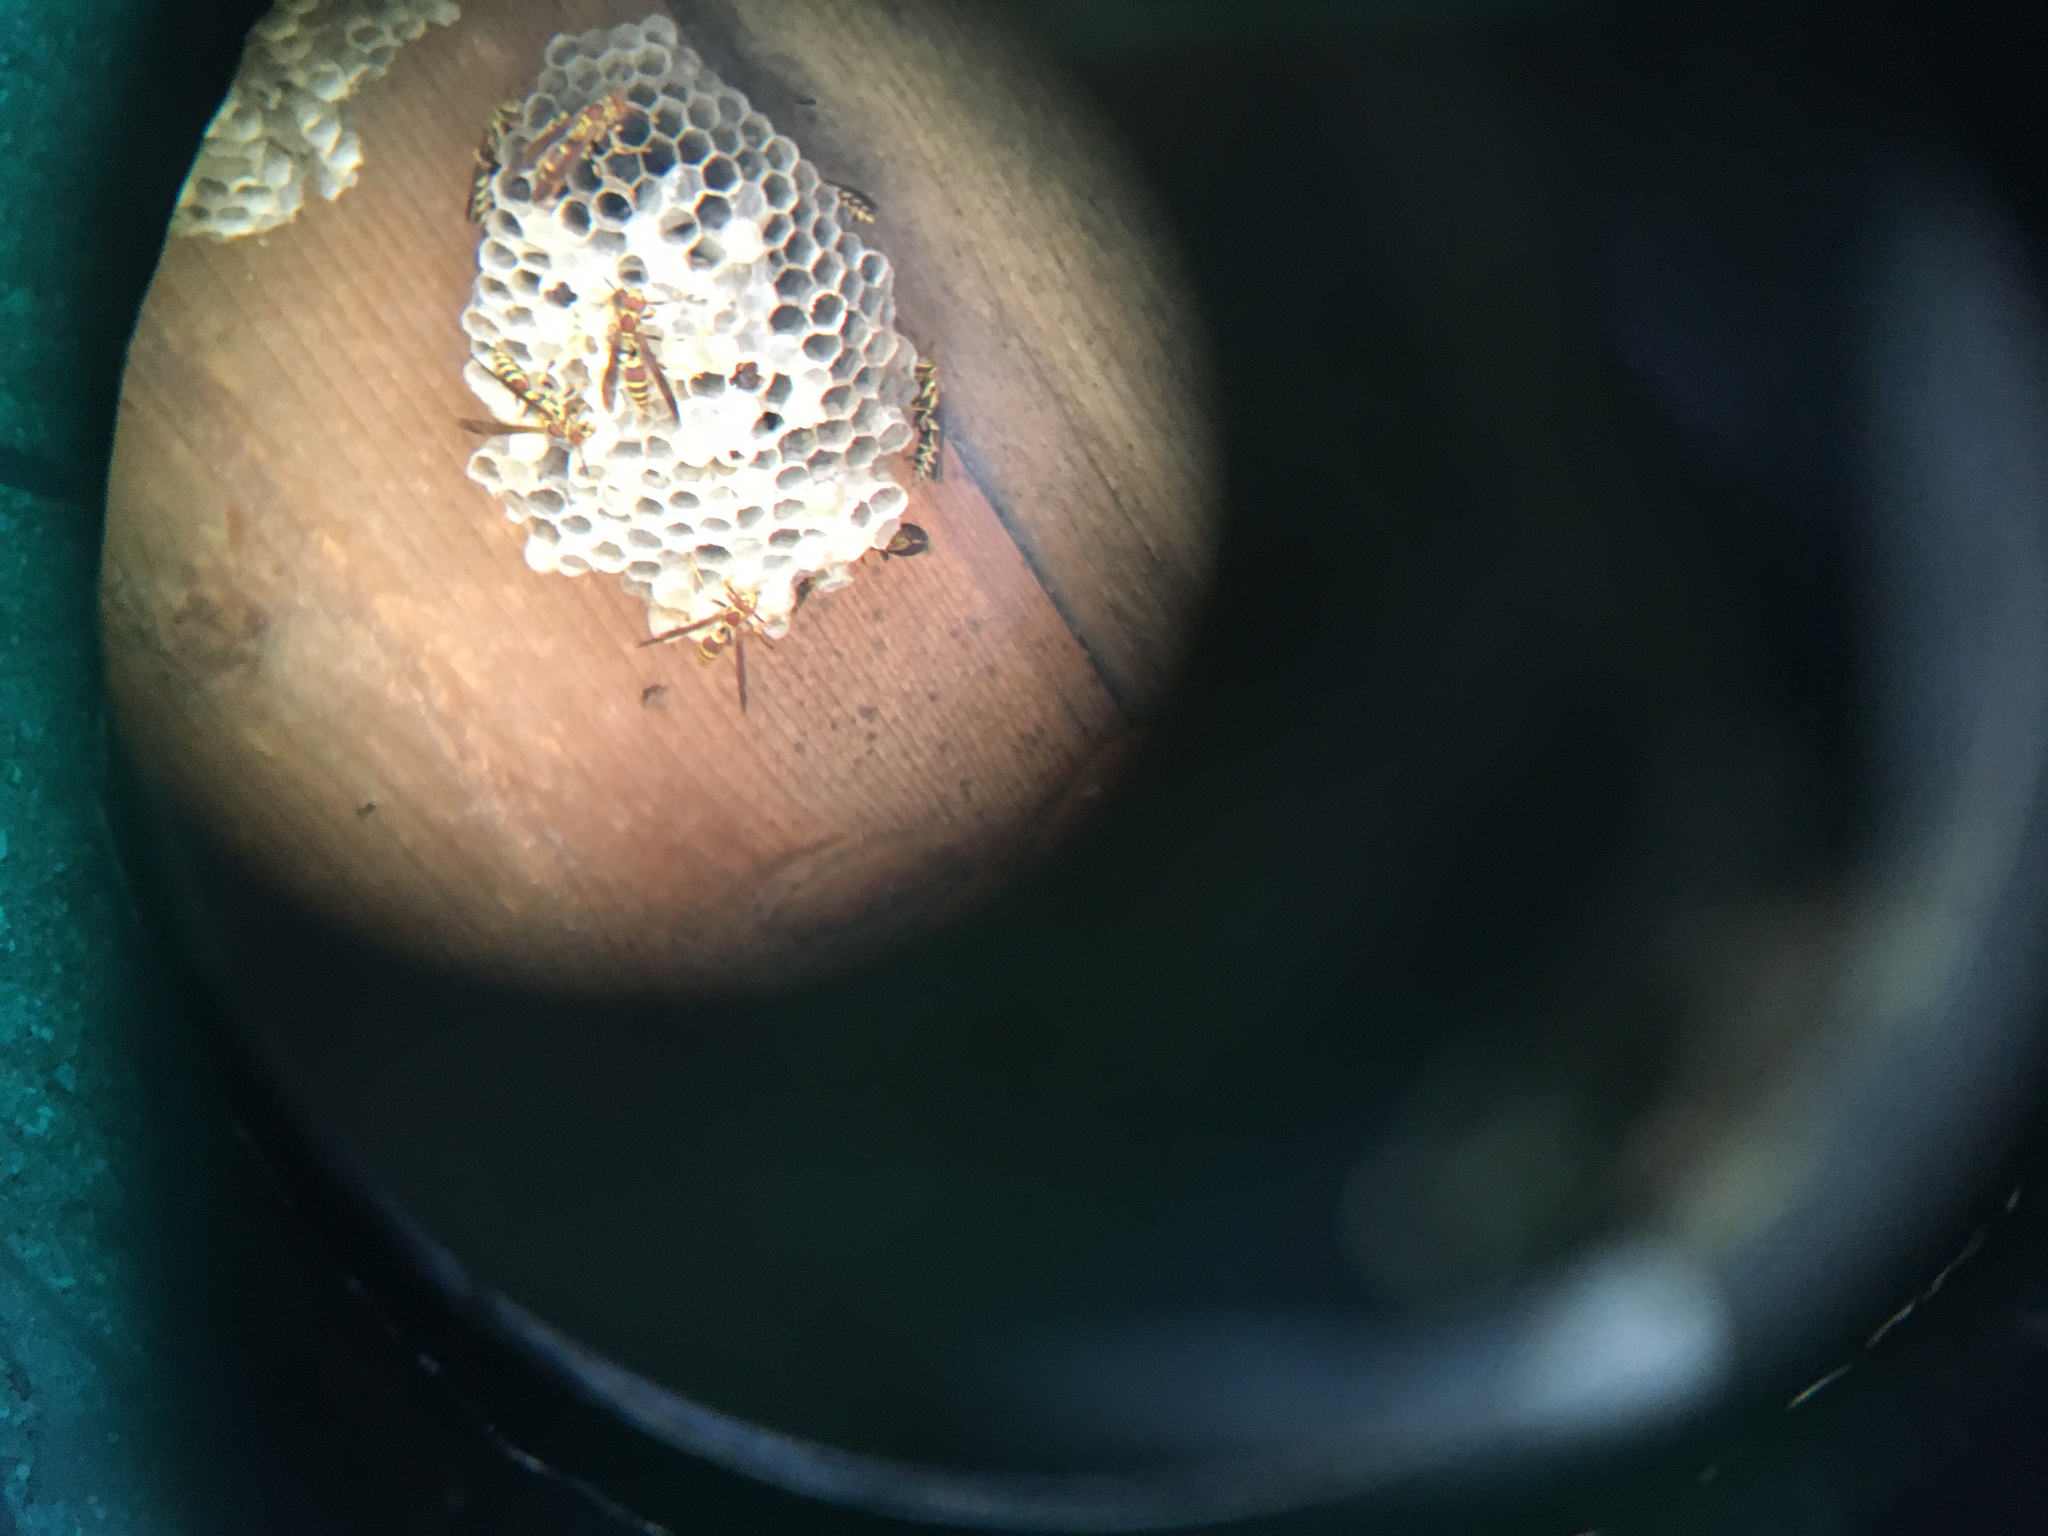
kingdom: Animalia
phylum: Arthropoda
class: Insecta
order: Hymenoptera
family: Eumenidae
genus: Polistes
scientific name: Polistes exclamans
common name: Paper wasp
